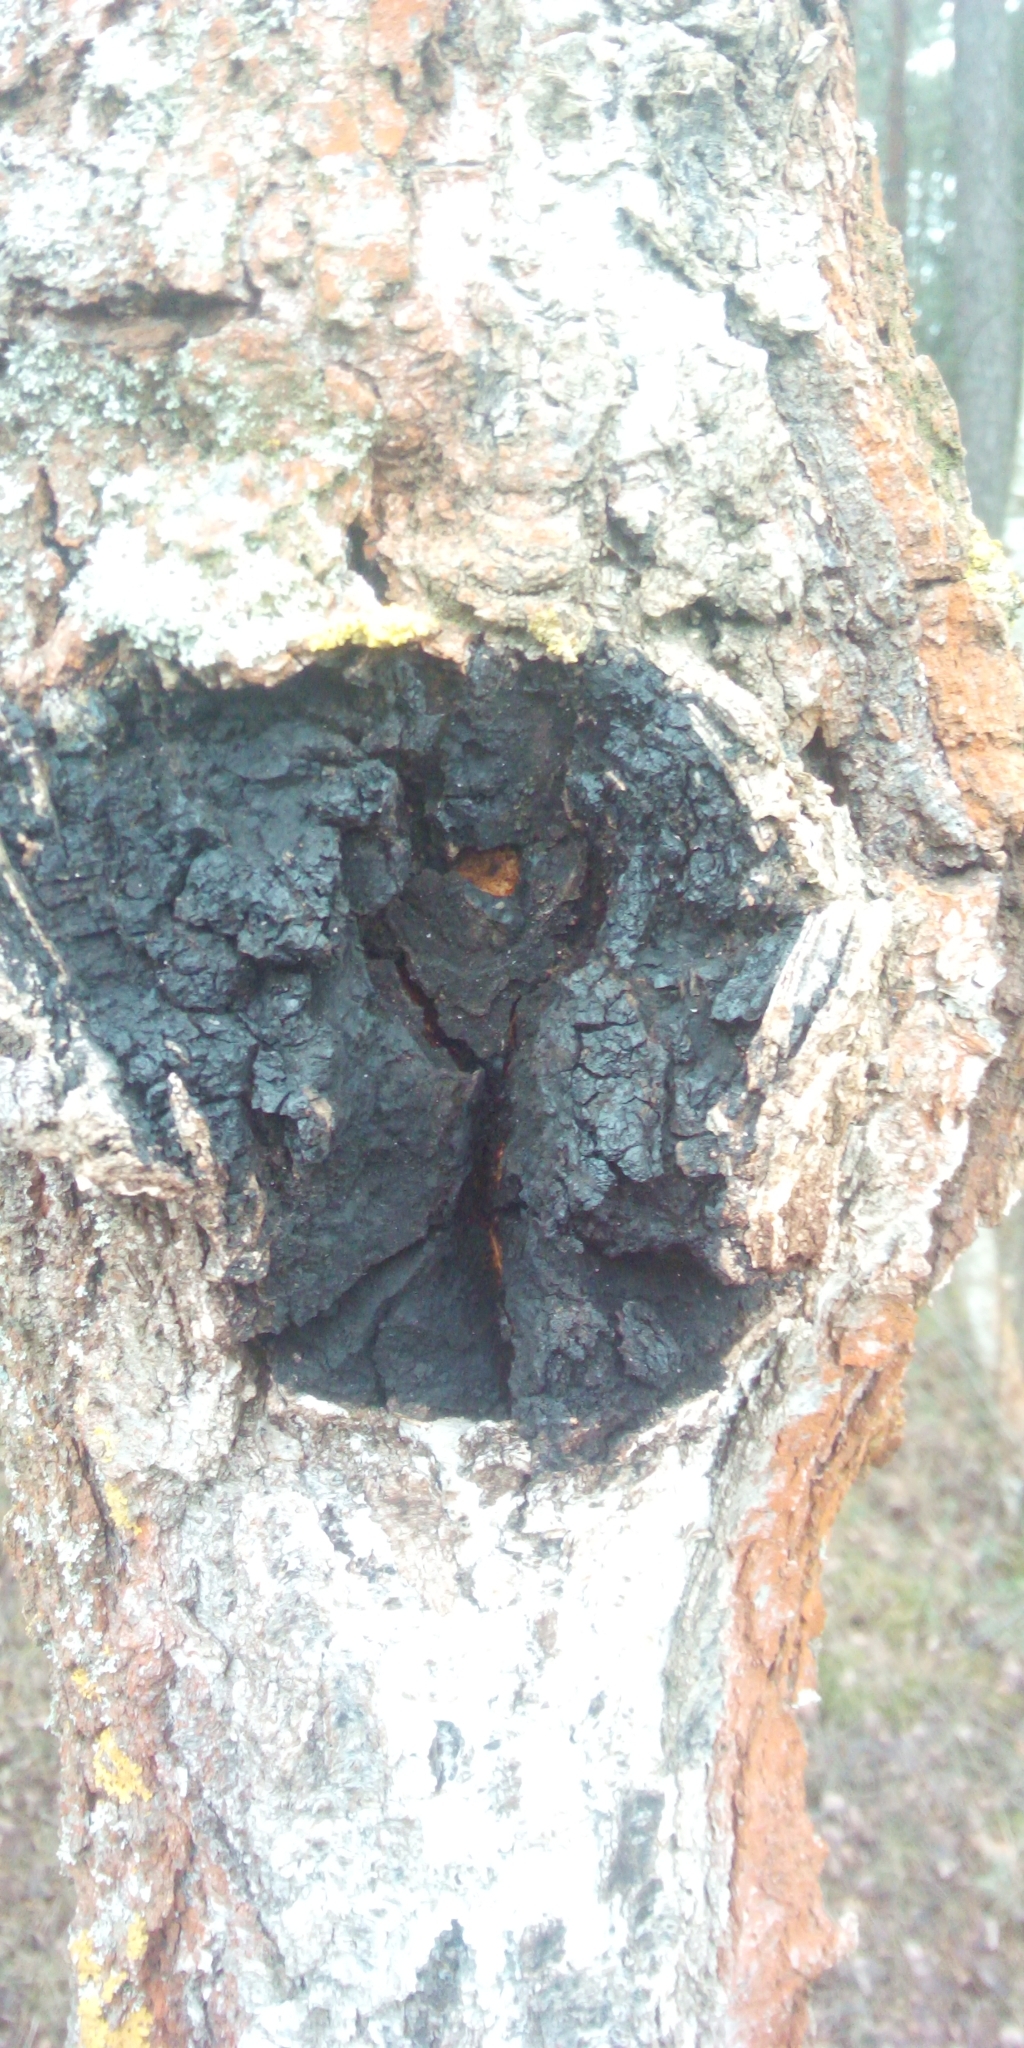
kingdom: Fungi
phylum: Basidiomycota
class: Agaricomycetes
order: Hymenochaetales
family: Hymenochaetaceae
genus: Inonotus
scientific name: Inonotus obliquus
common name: Chaga
